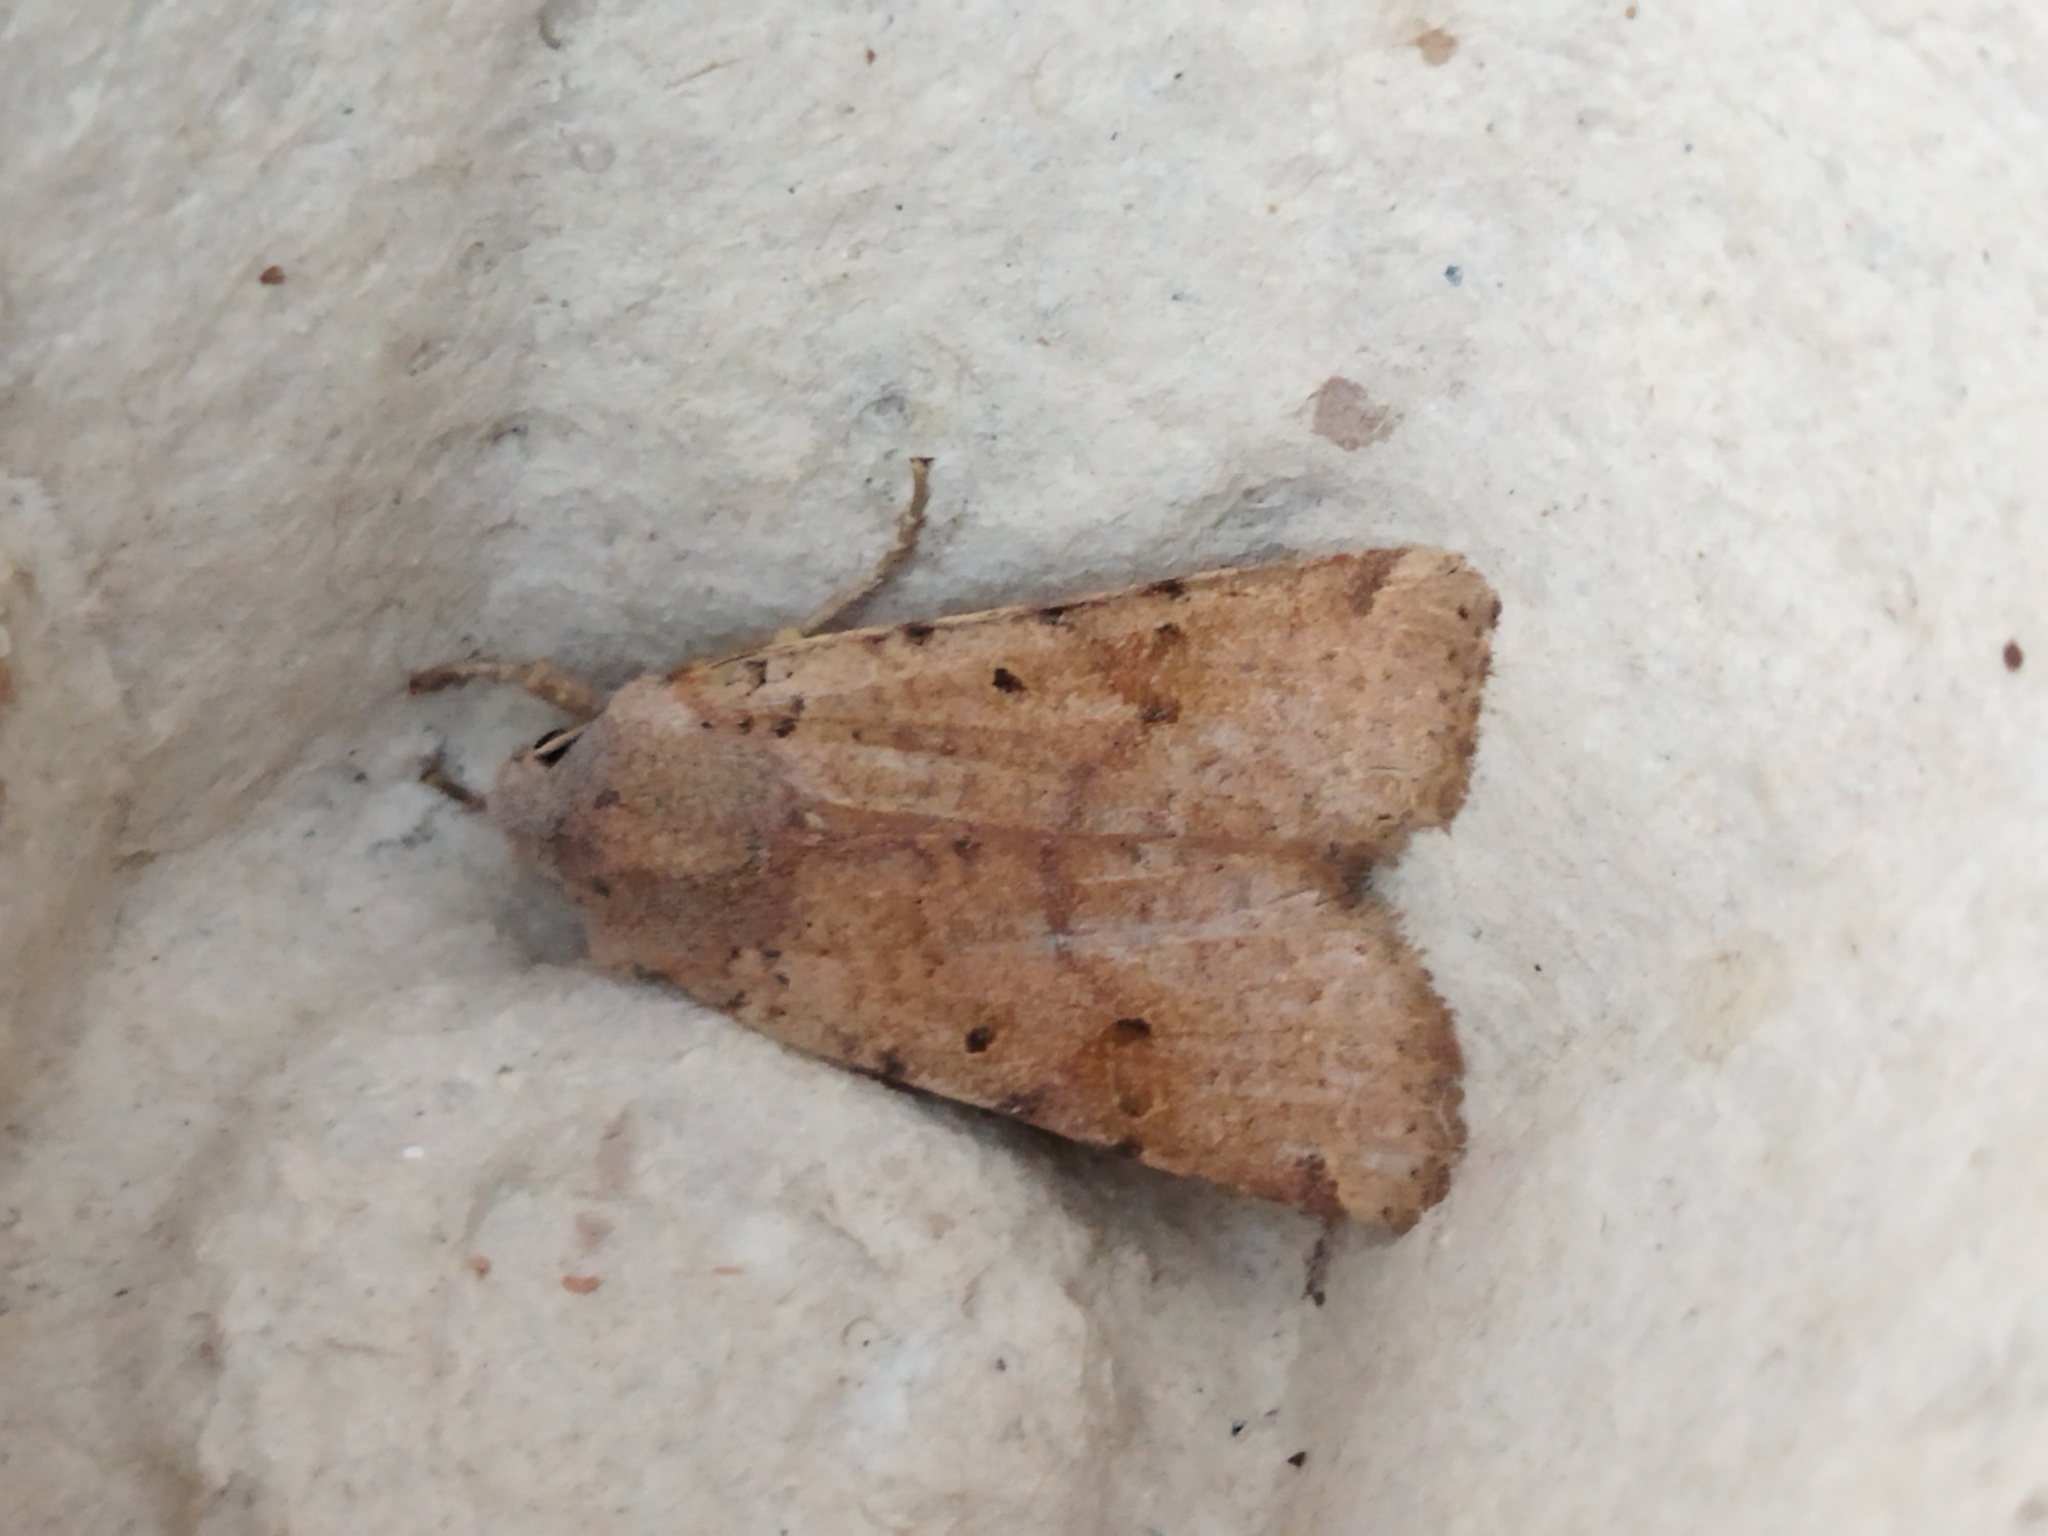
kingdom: Animalia
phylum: Arthropoda
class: Insecta
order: Lepidoptera
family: Noctuidae
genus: Agrochola
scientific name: Agrochola lychnidis
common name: Beaded chestnut
